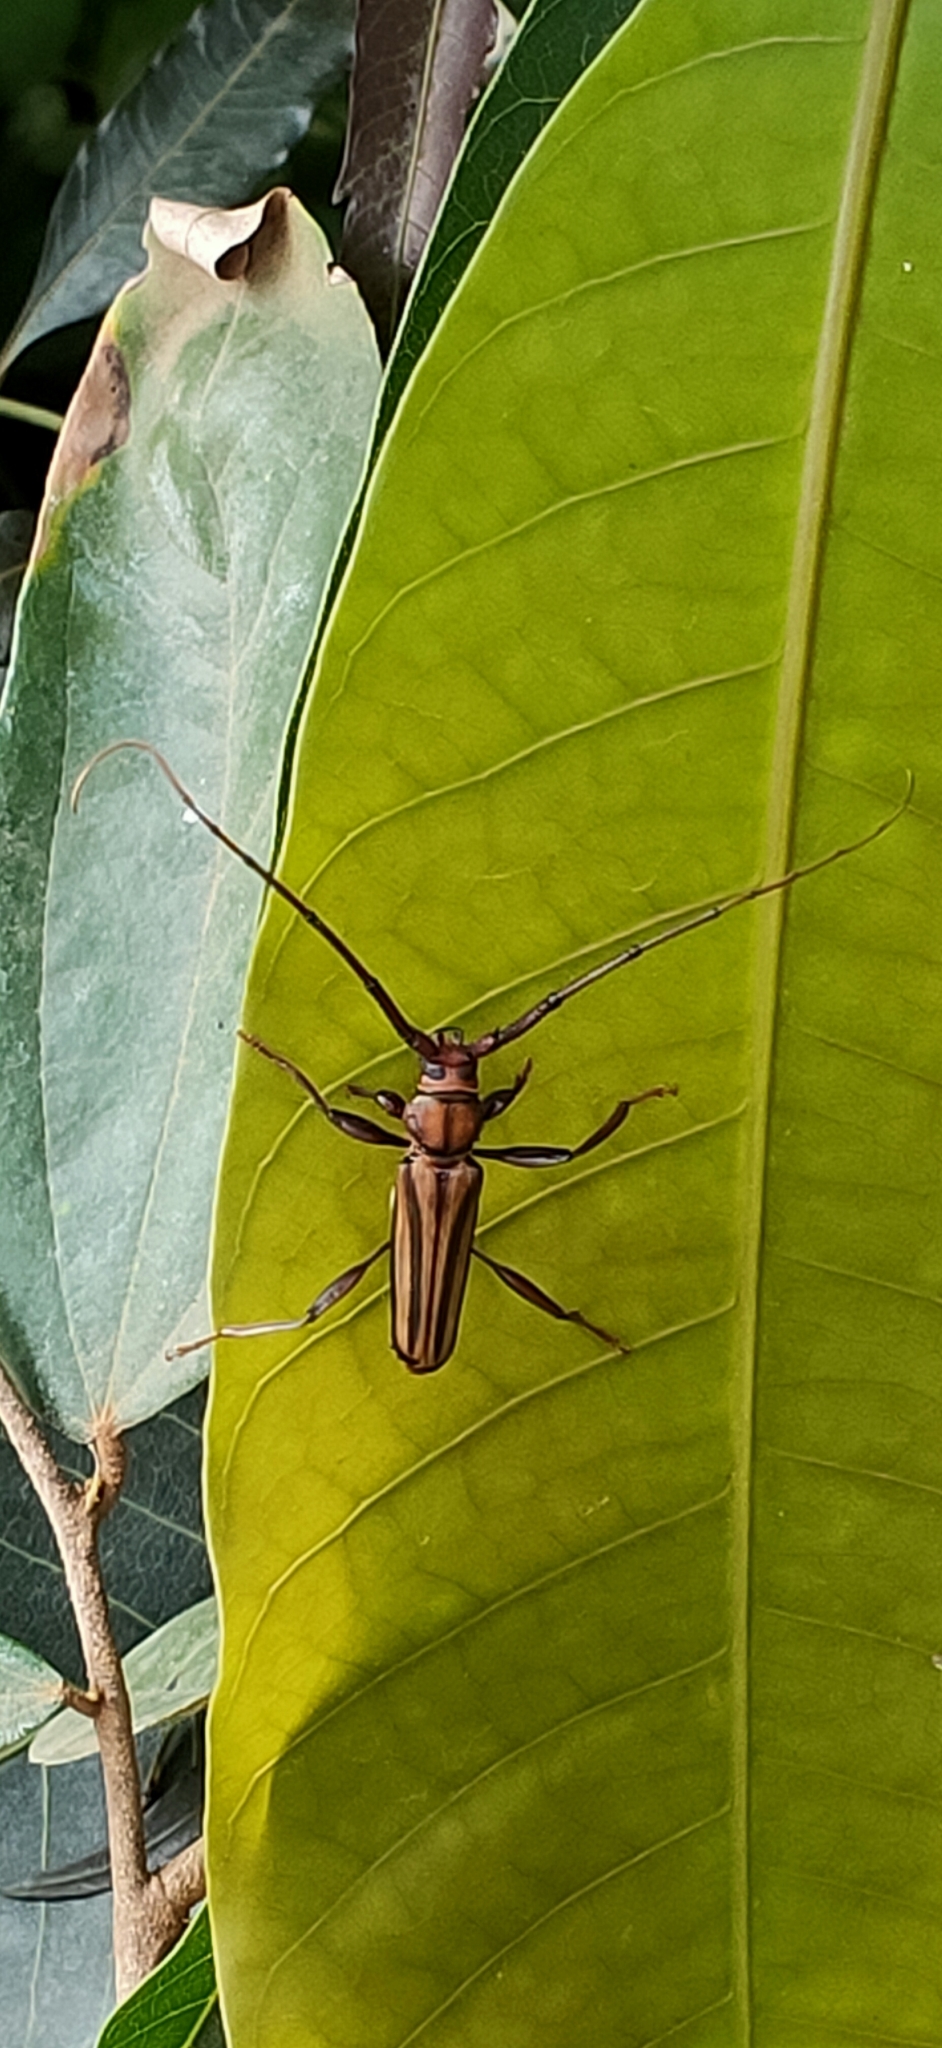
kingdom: Animalia
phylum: Arthropoda
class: Insecta
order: Coleoptera
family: Cerambycidae
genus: Xystrocera
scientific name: Xystrocera globosa
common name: Peach-tree longhorn
